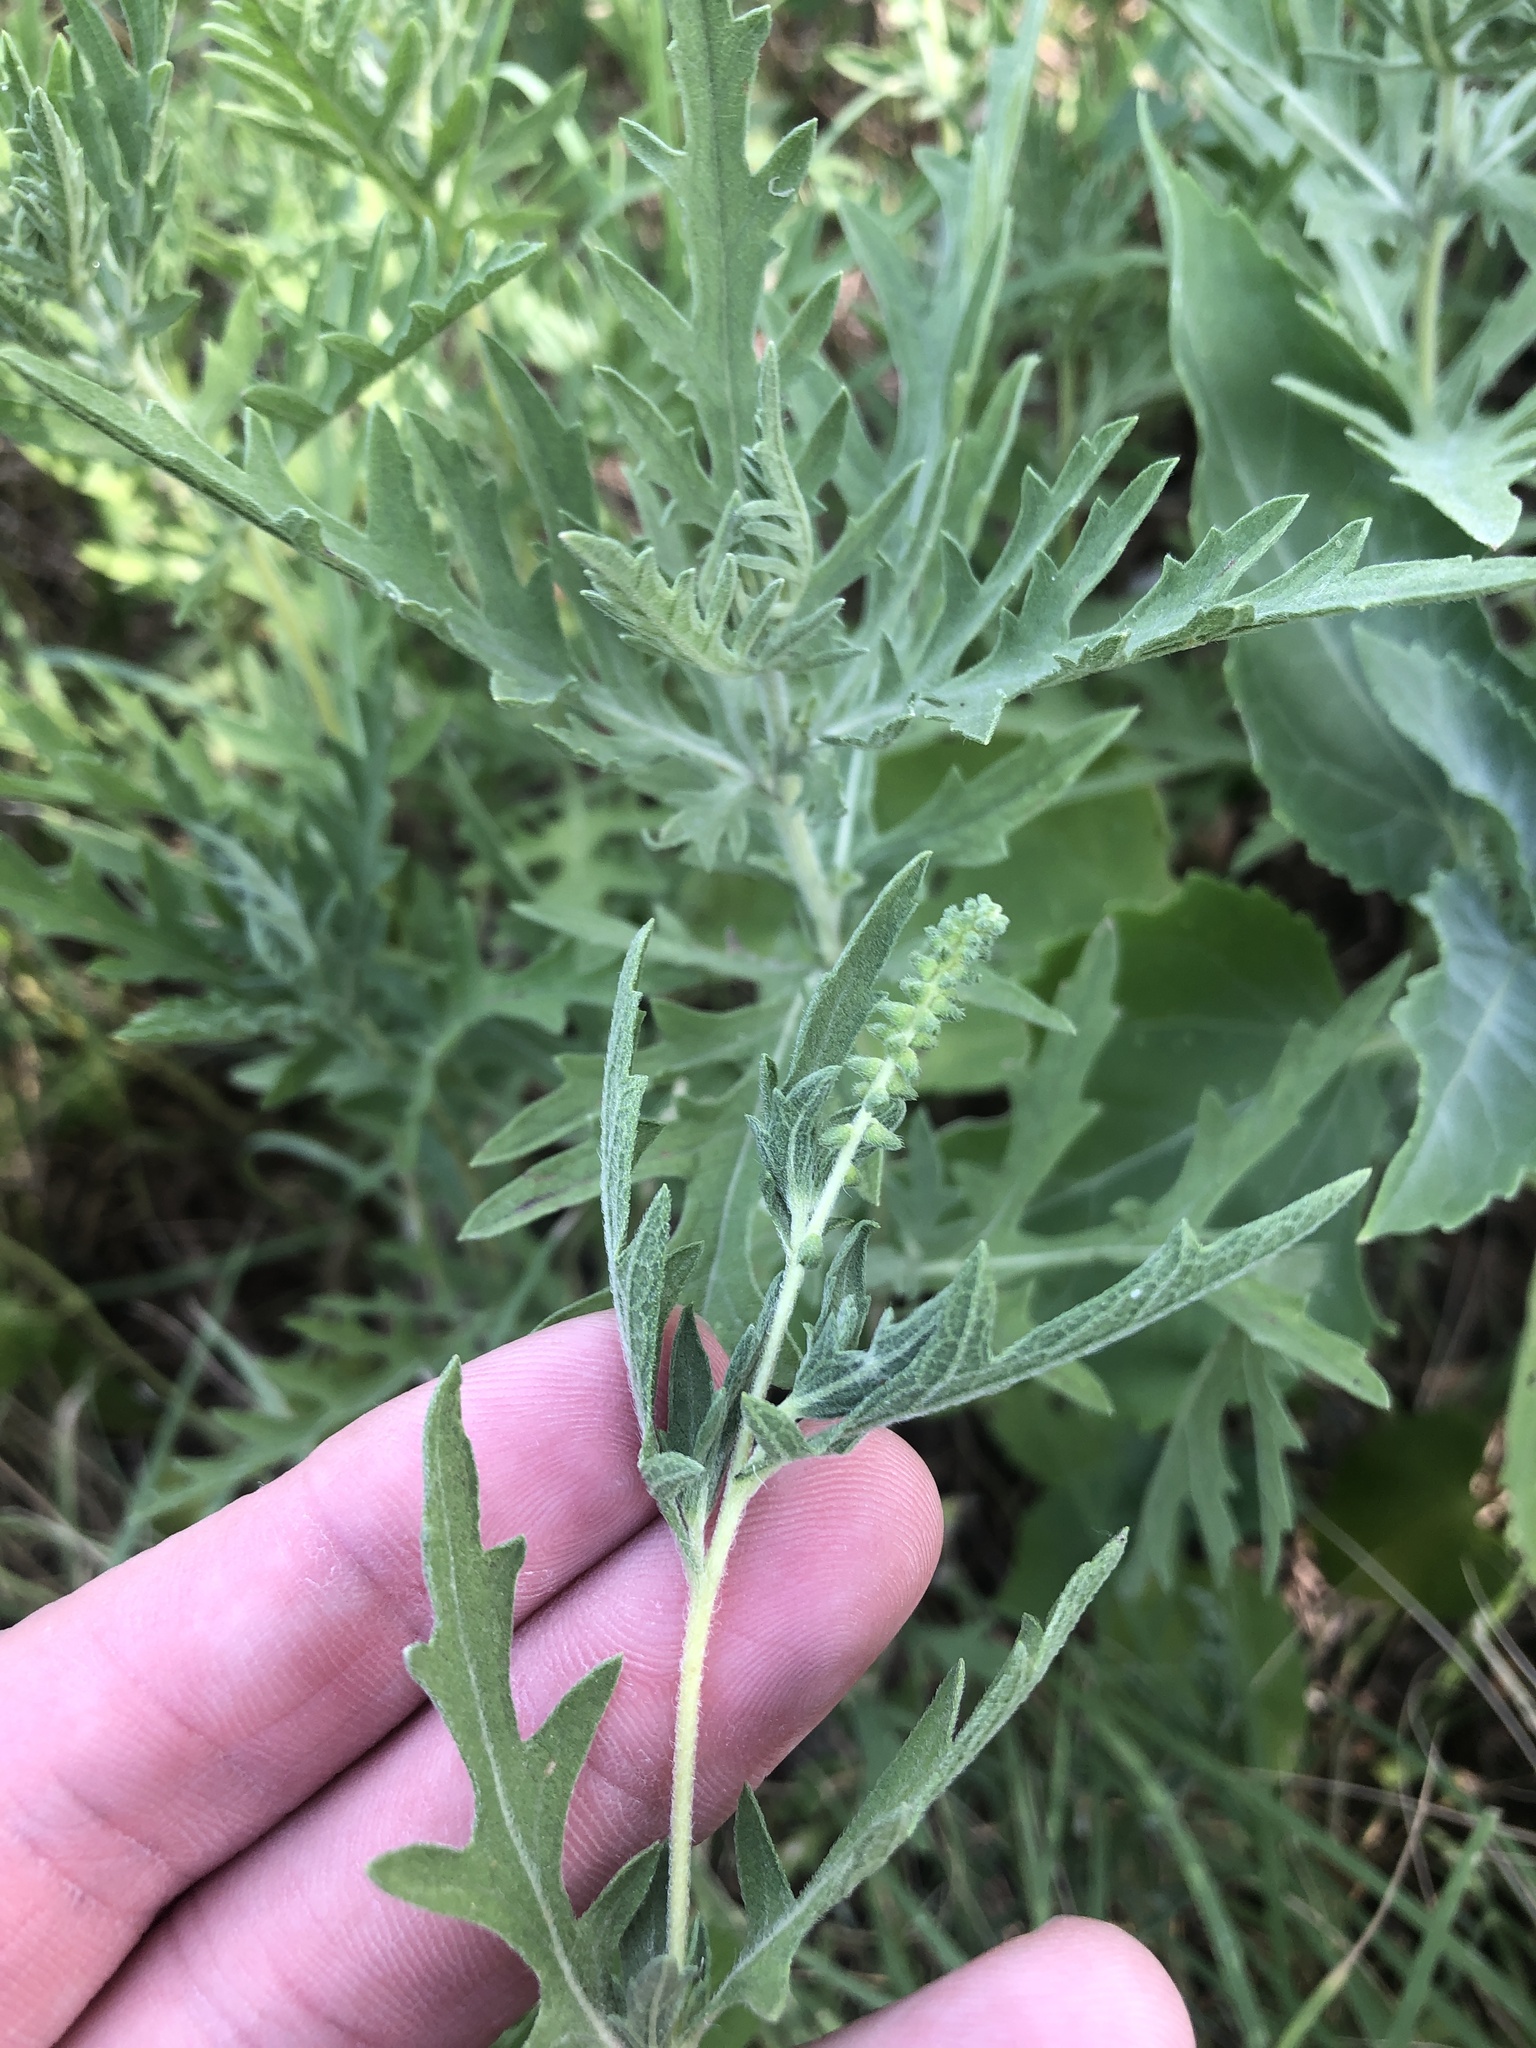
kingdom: Plantae
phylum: Tracheophyta
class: Magnoliopsida
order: Asterales
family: Asteraceae
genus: Ambrosia
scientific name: Ambrosia psilostachya
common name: Perennial ragweed
